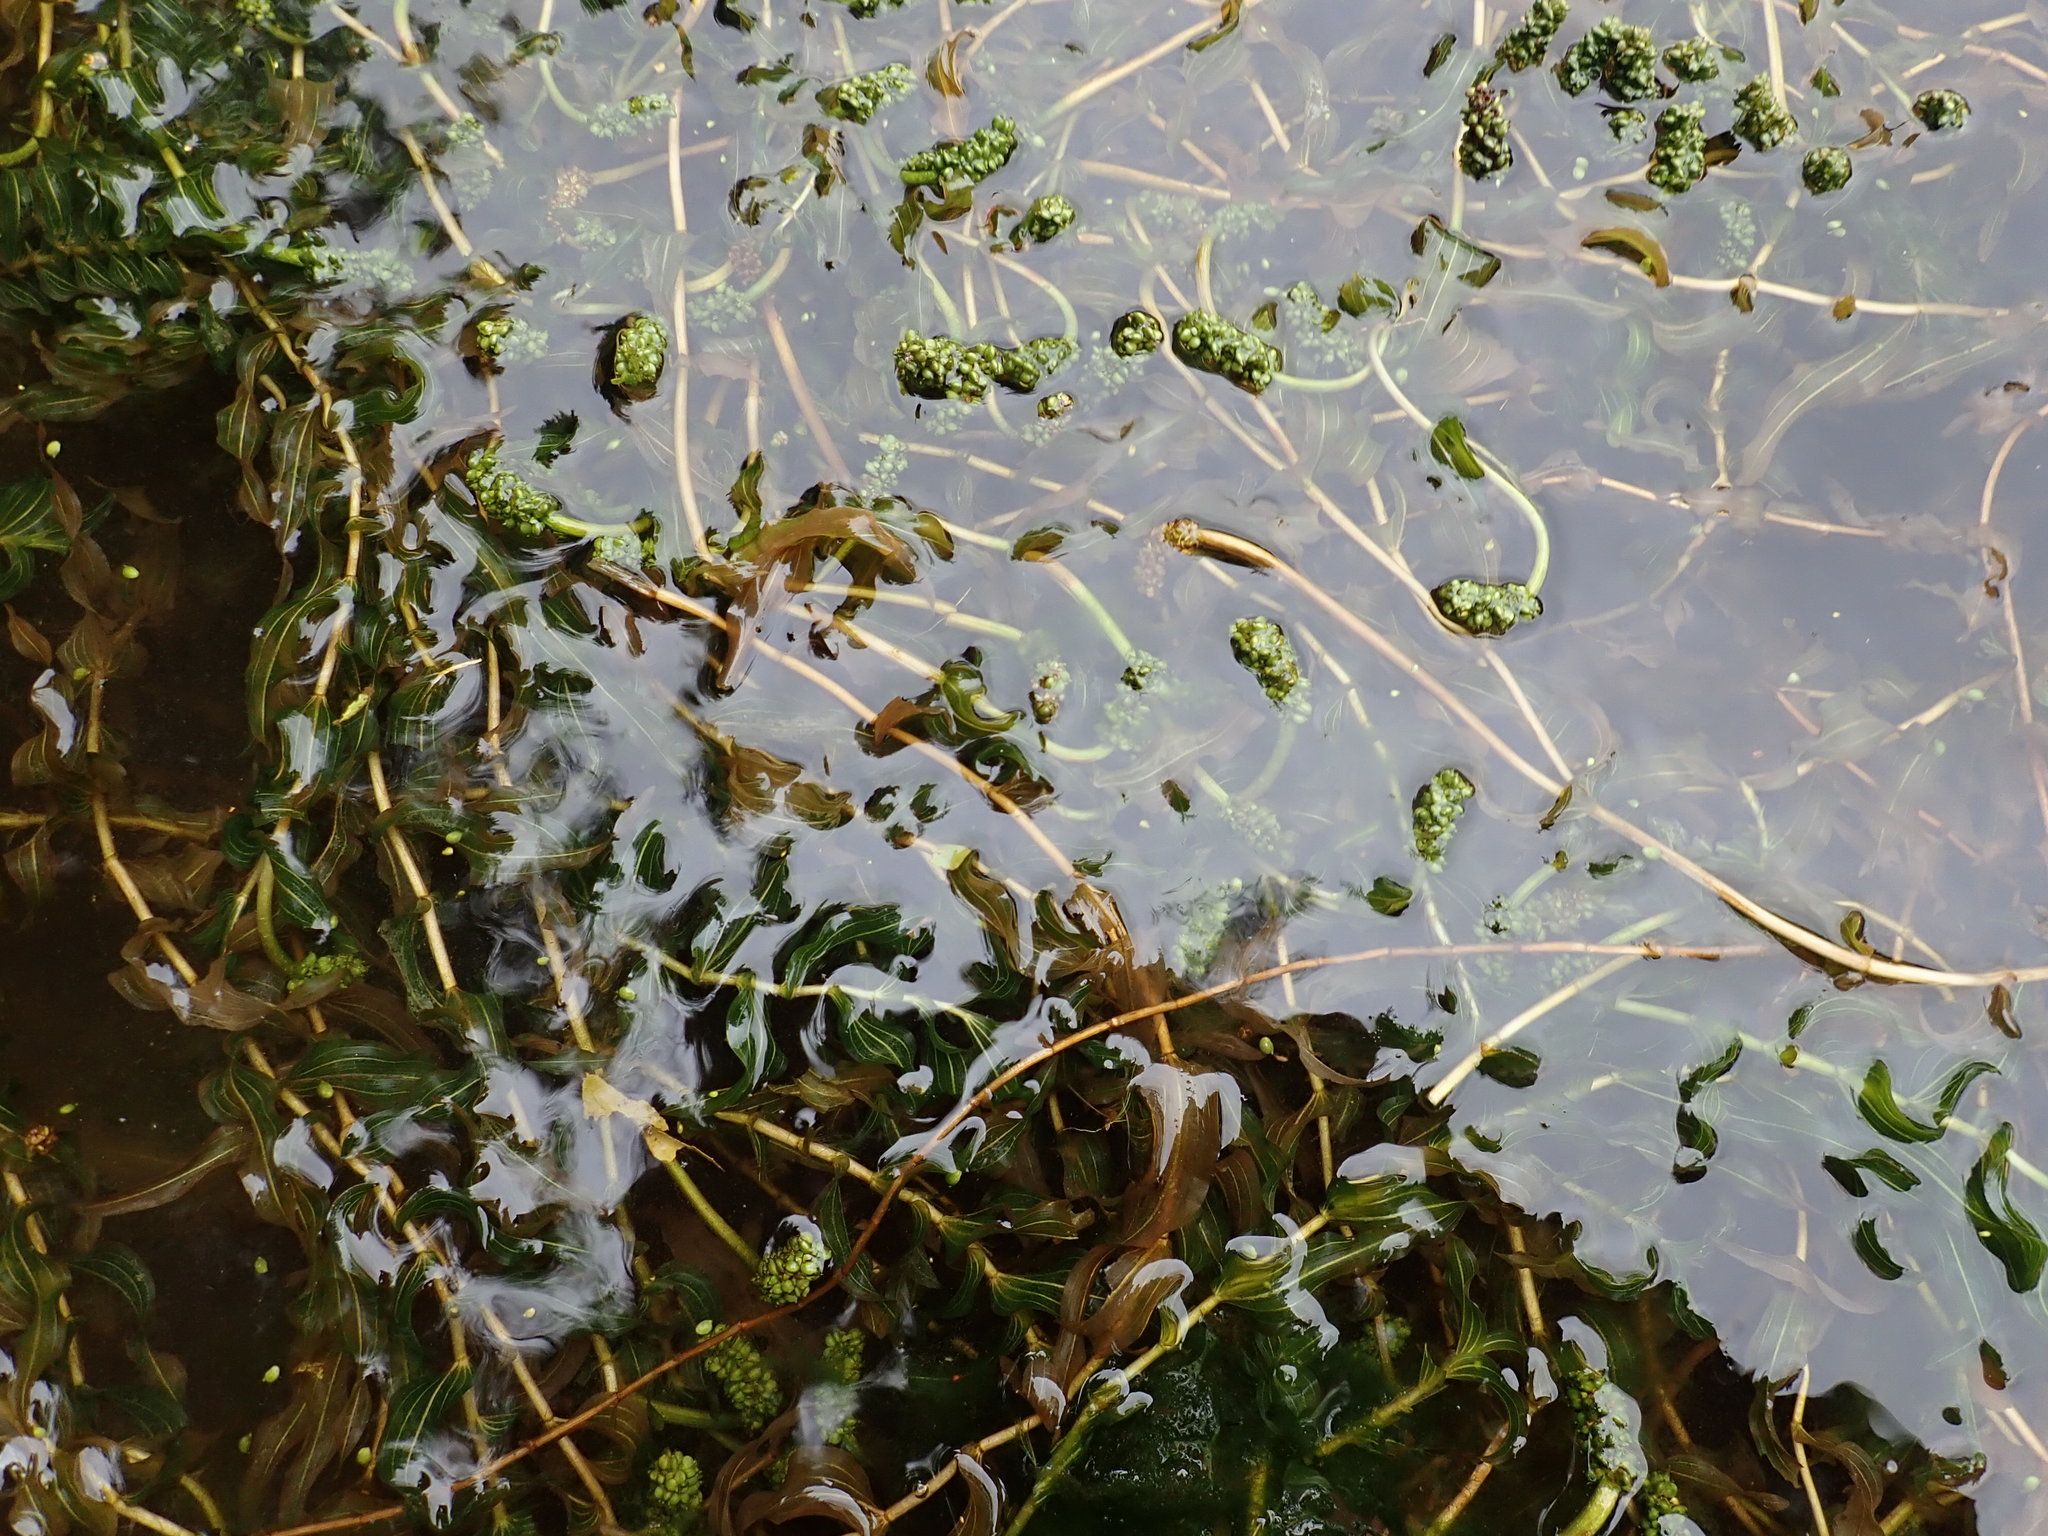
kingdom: Plantae
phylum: Tracheophyta
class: Liliopsida
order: Alismatales
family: Potamogetonaceae
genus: Potamogeton
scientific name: Potamogeton richardsonii
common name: Richardson's pondweed
